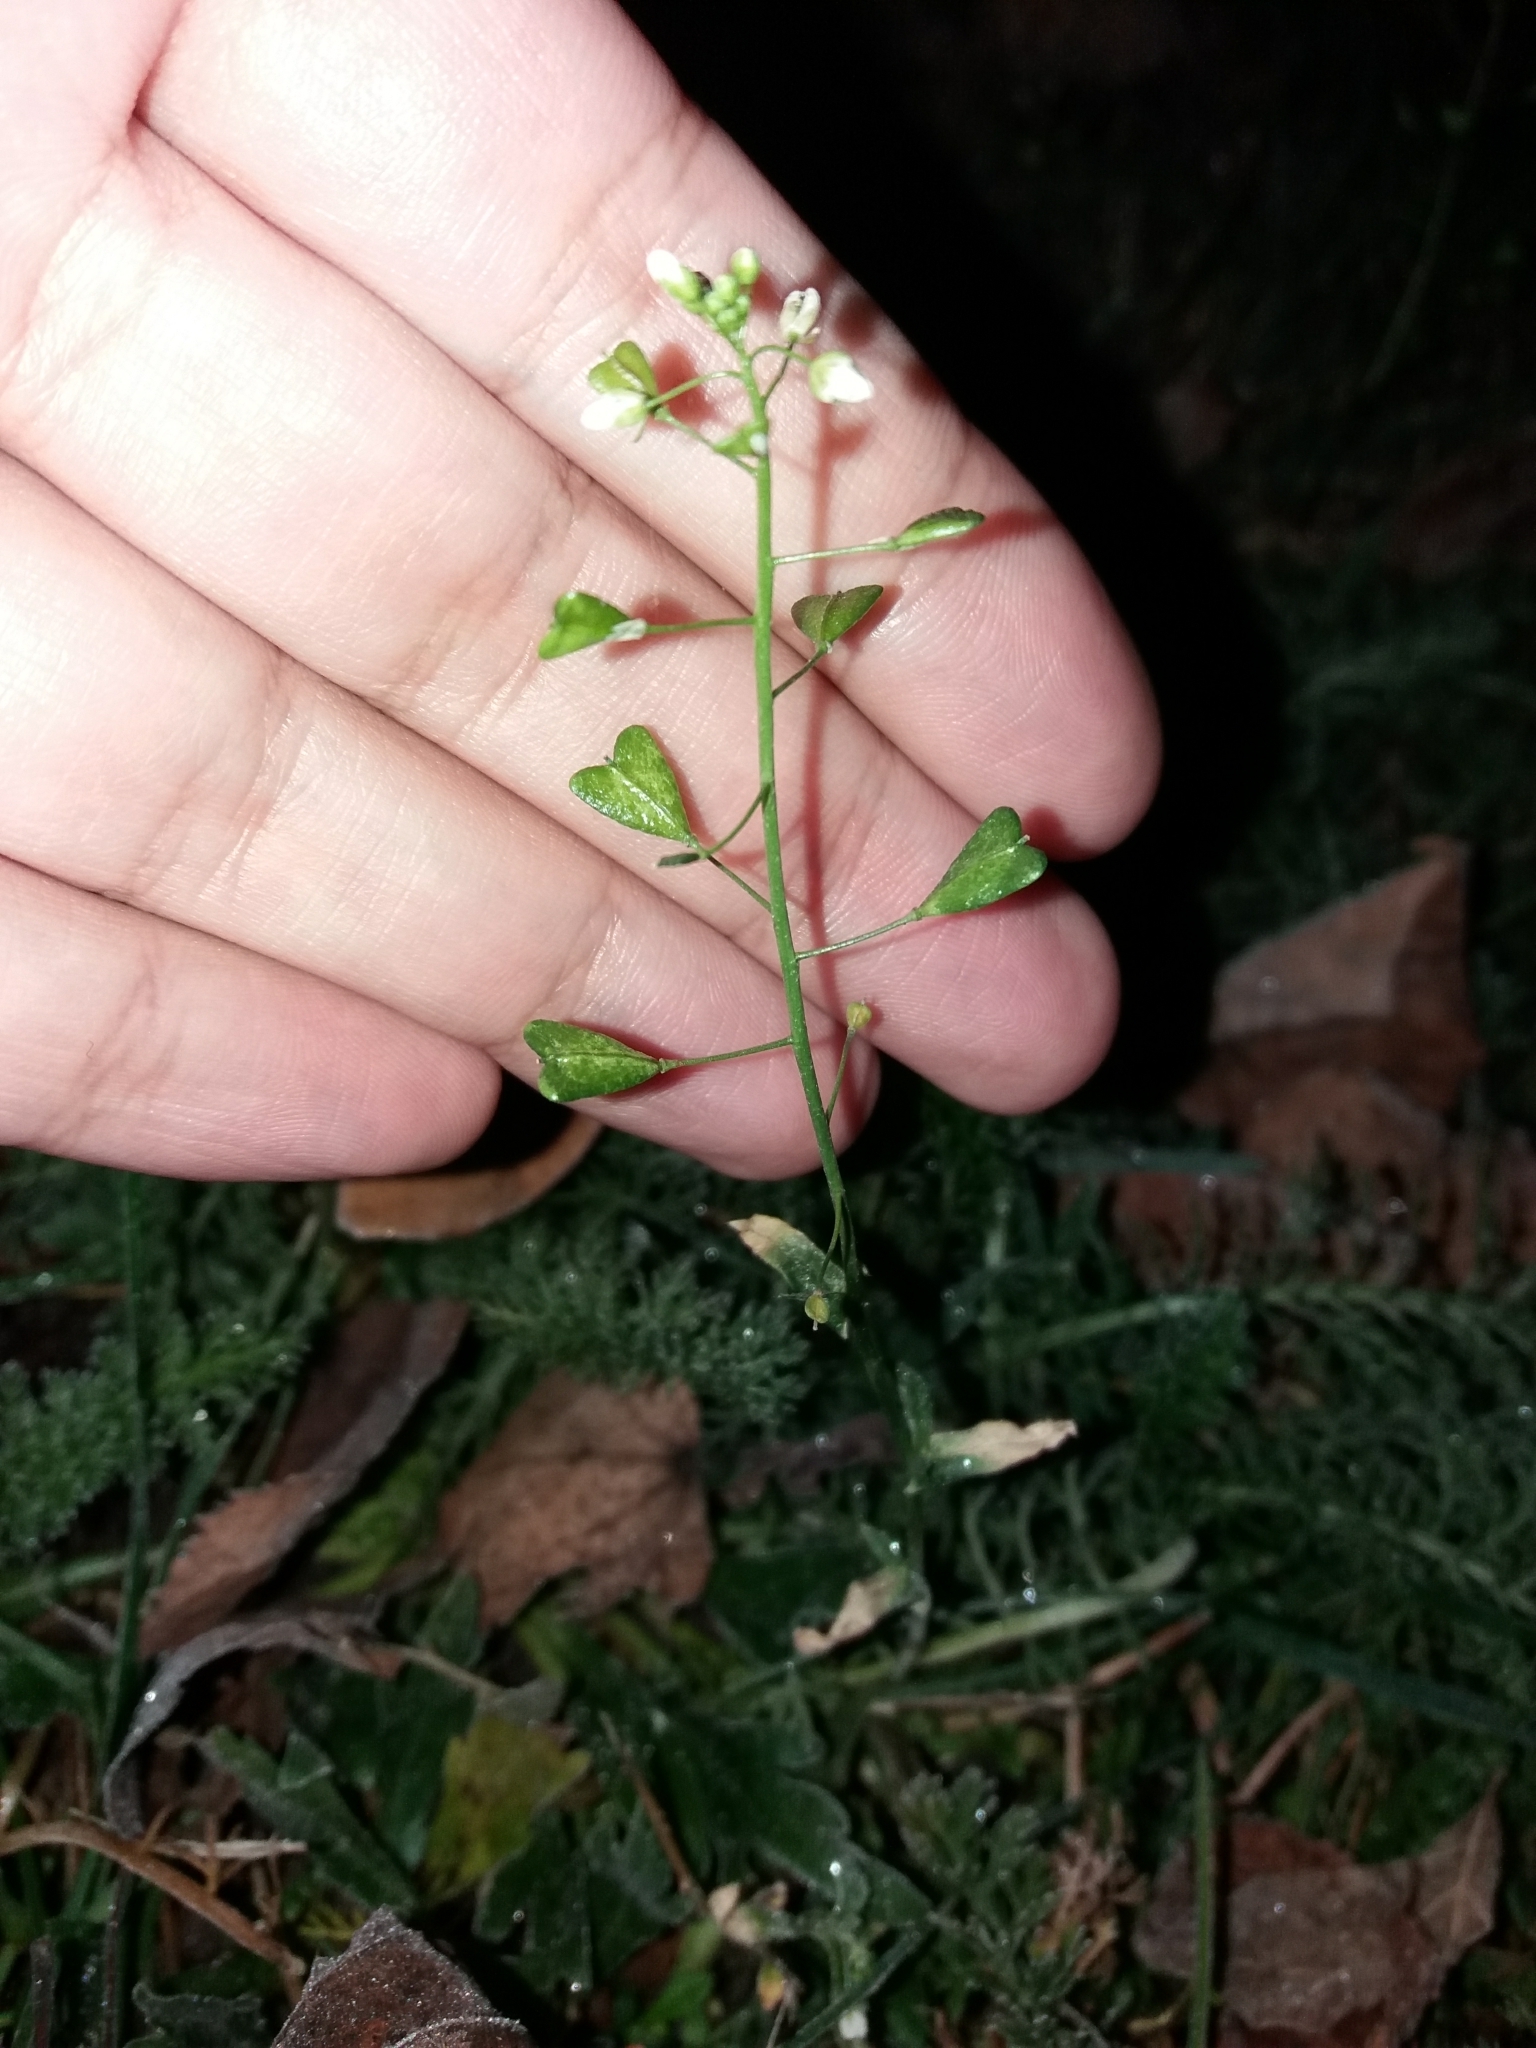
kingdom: Plantae
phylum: Tracheophyta
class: Magnoliopsida
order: Brassicales
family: Brassicaceae
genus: Capsella
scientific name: Capsella bursa-pastoris
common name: Shepherd's purse
